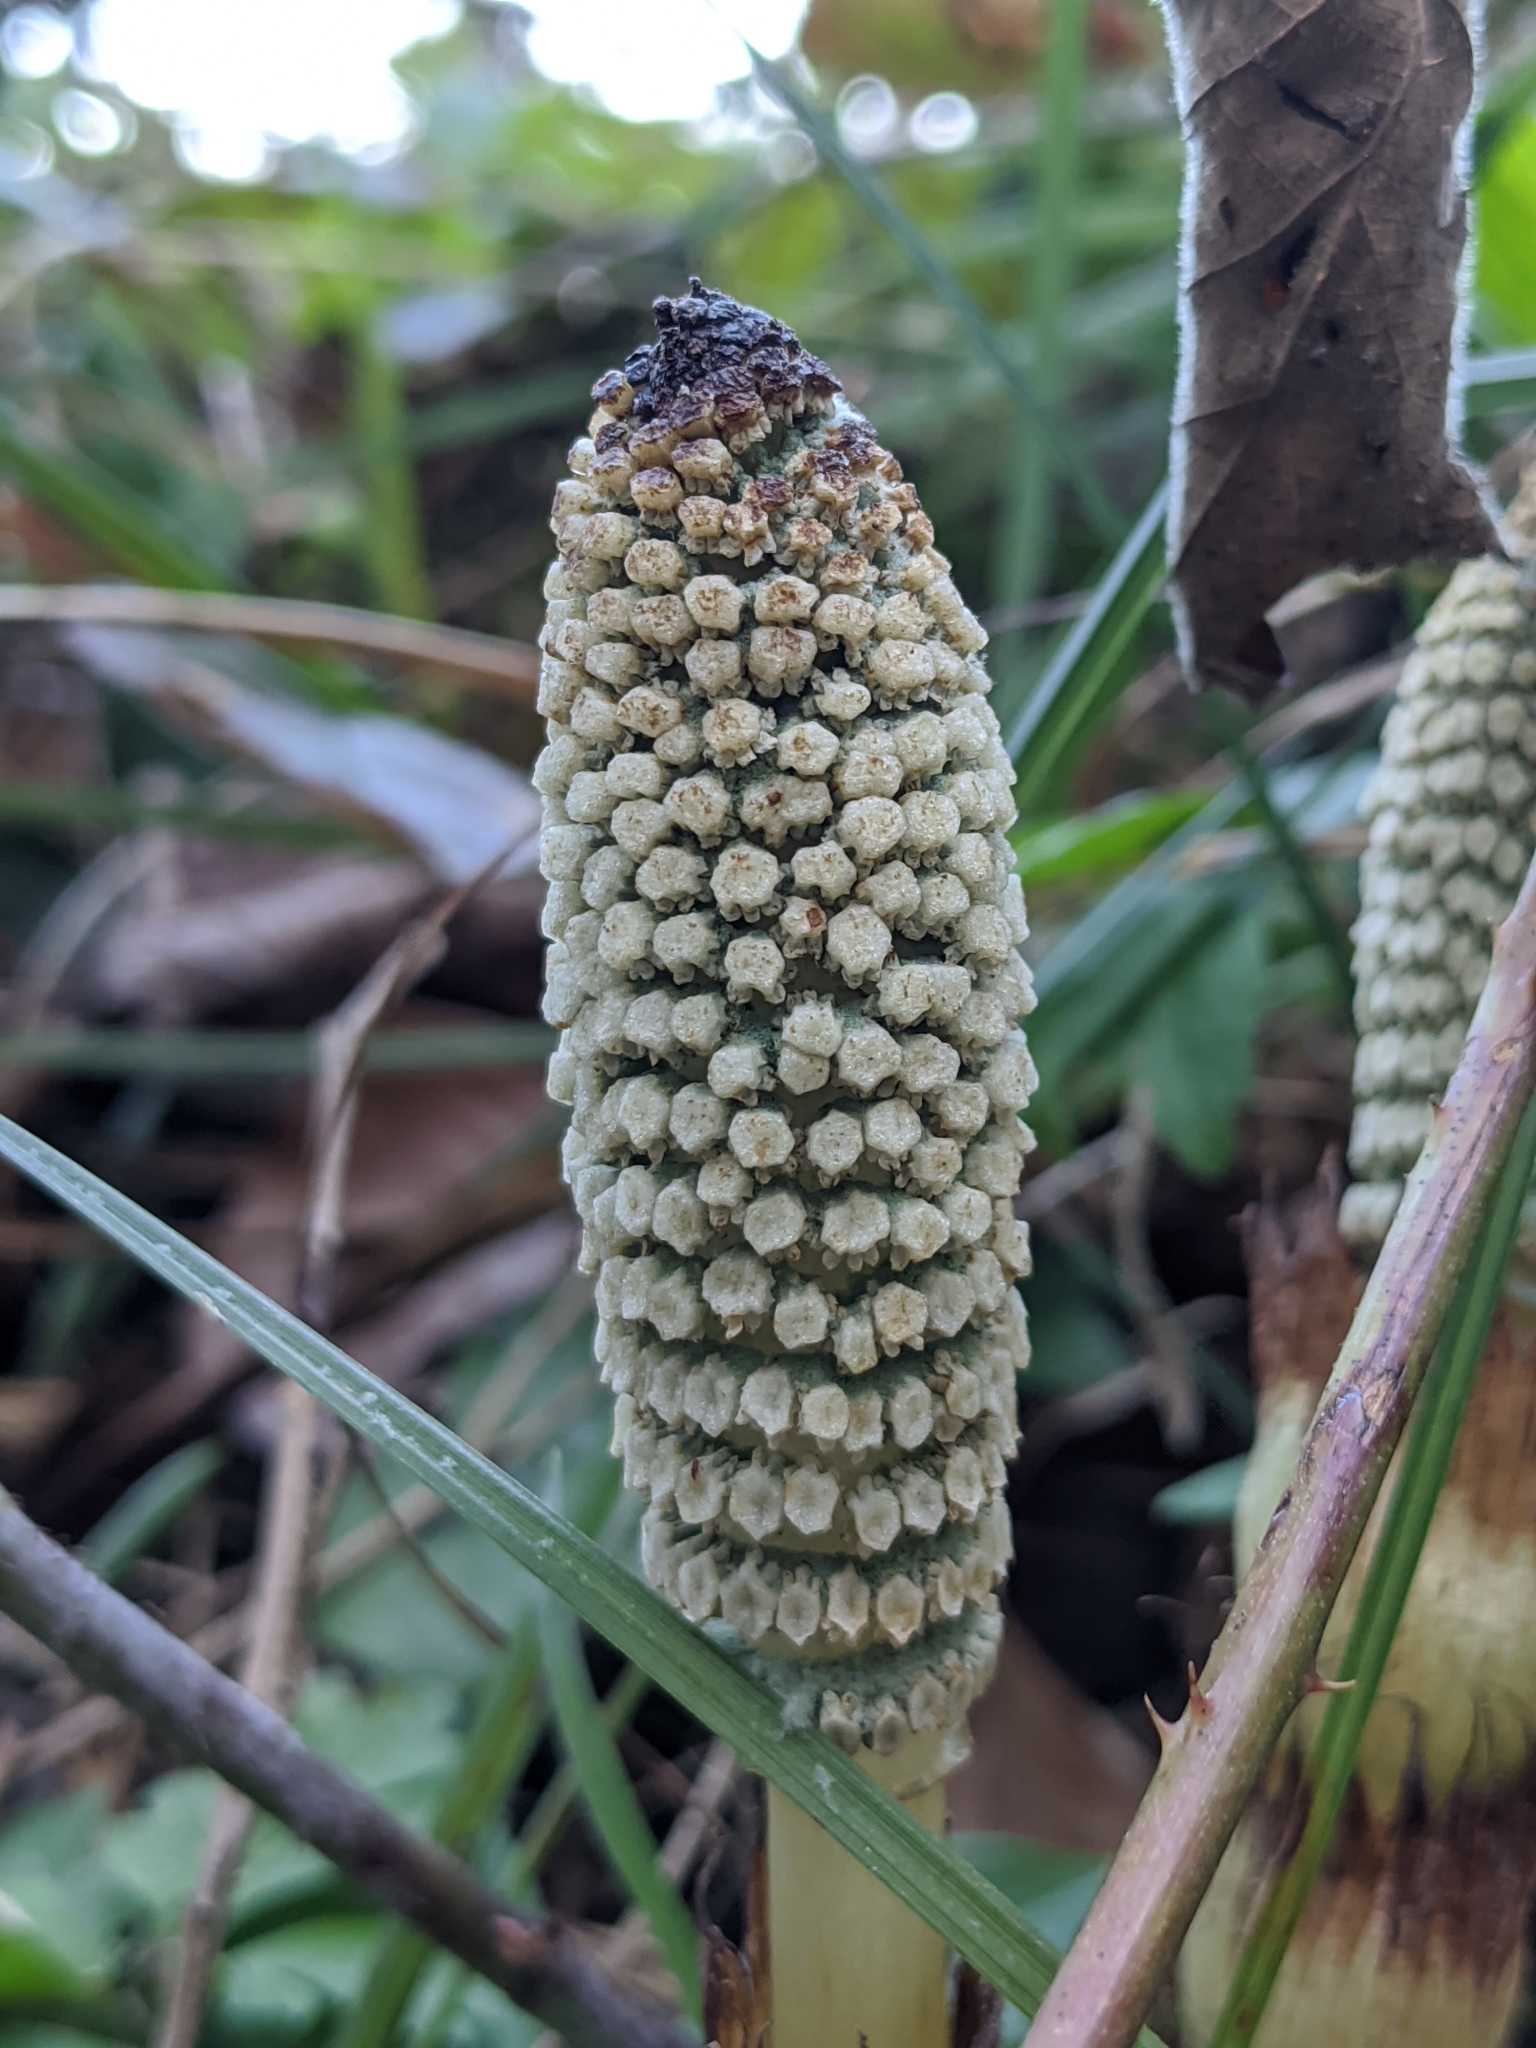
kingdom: Plantae
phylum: Tracheophyta
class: Polypodiopsida
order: Equisetales
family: Equisetaceae
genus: Equisetum
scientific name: Equisetum telmateia
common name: Great horsetail
